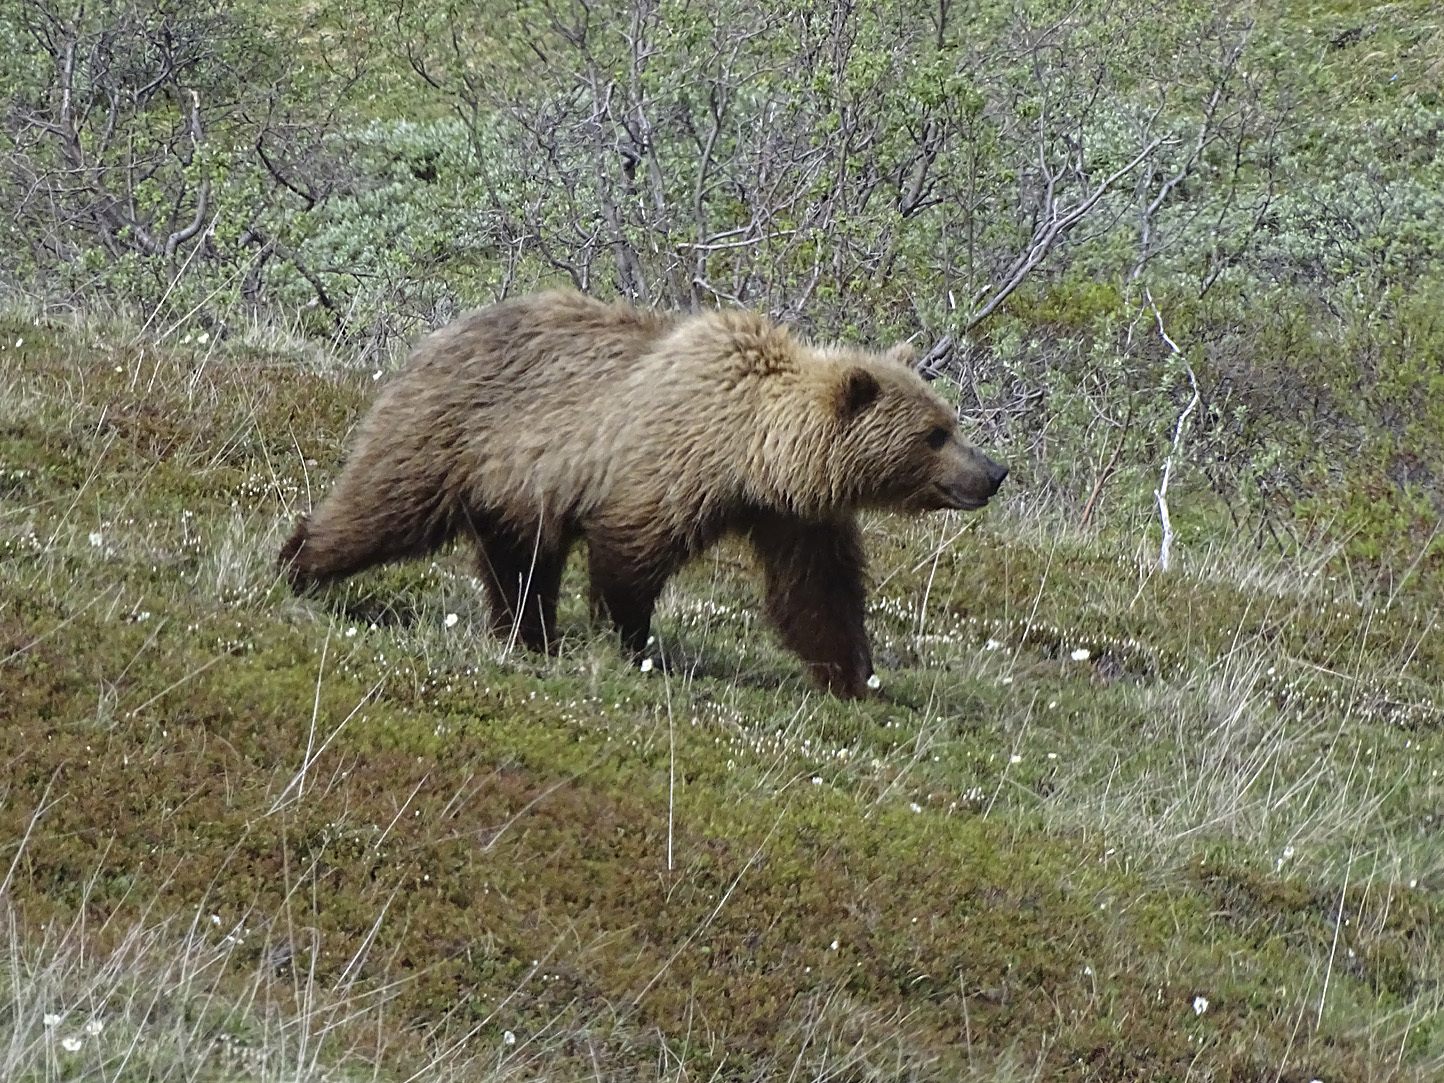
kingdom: Animalia
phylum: Chordata
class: Mammalia
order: Carnivora
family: Ursidae
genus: Ursus
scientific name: Ursus arctos
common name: Brown bear
